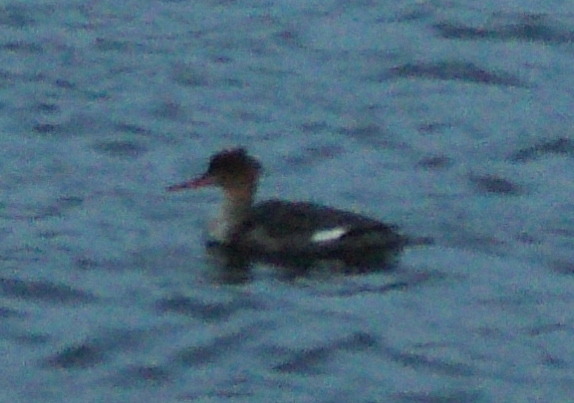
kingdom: Animalia
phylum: Chordata
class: Aves
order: Anseriformes
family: Anatidae
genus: Mergus
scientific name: Mergus serrator
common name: Red-breasted merganser
